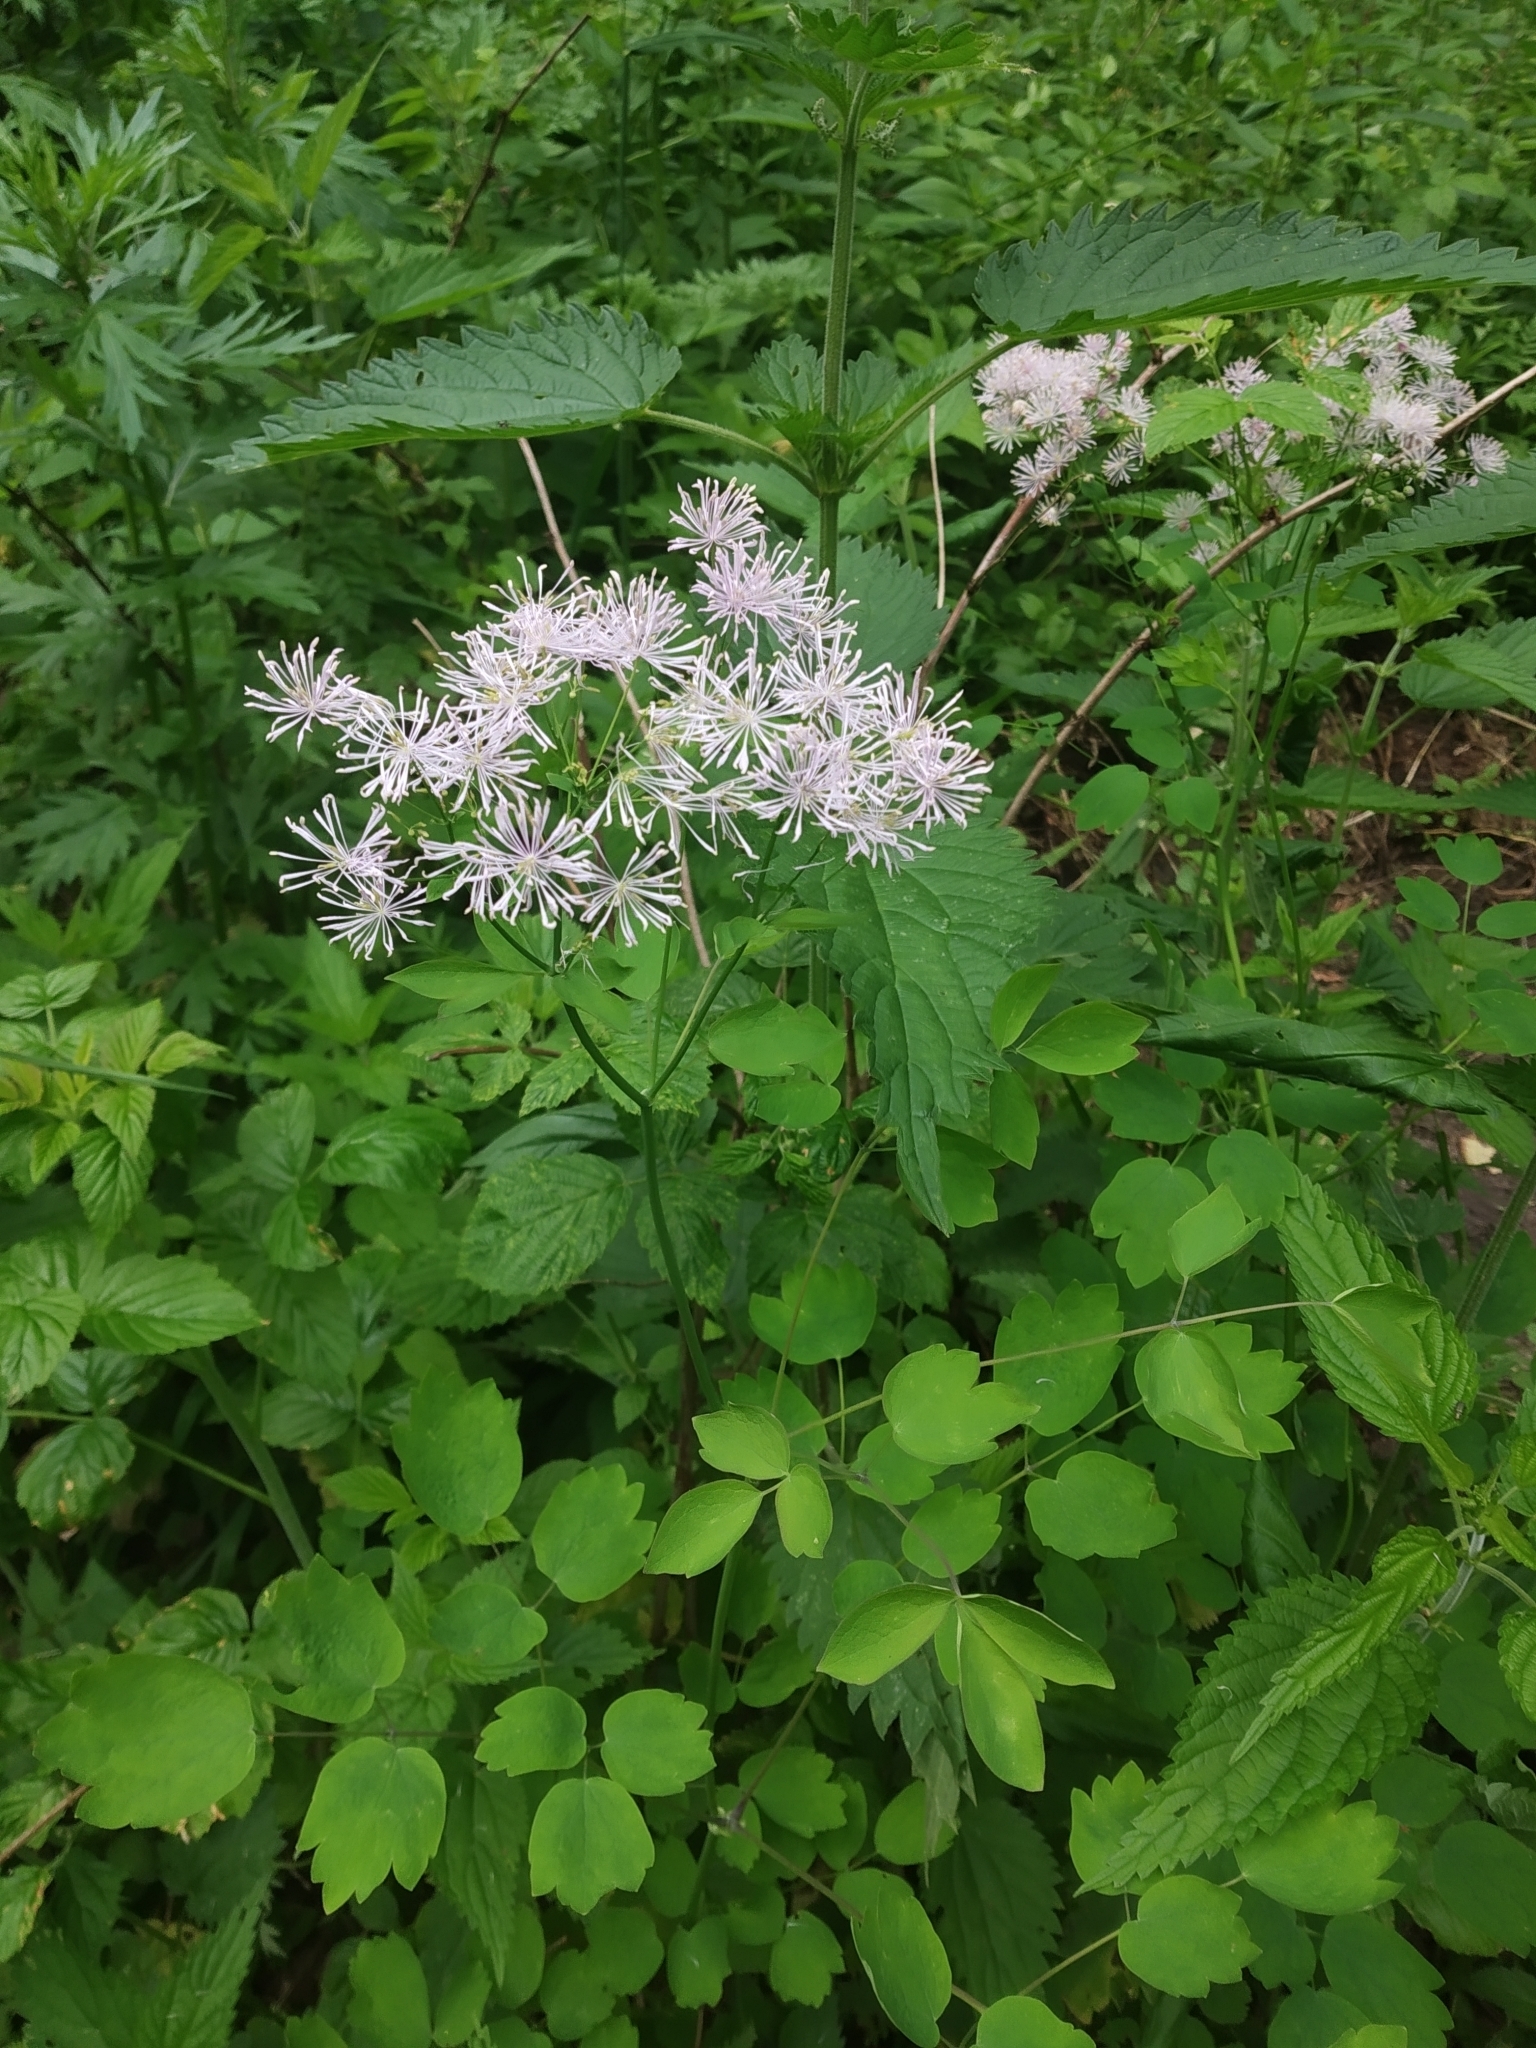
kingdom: Plantae
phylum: Tracheophyta
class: Magnoliopsida
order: Ranunculales
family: Ranunculaceae
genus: Thalictrum
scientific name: Thalictrum aquilegiifolium
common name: French meadow-rue
